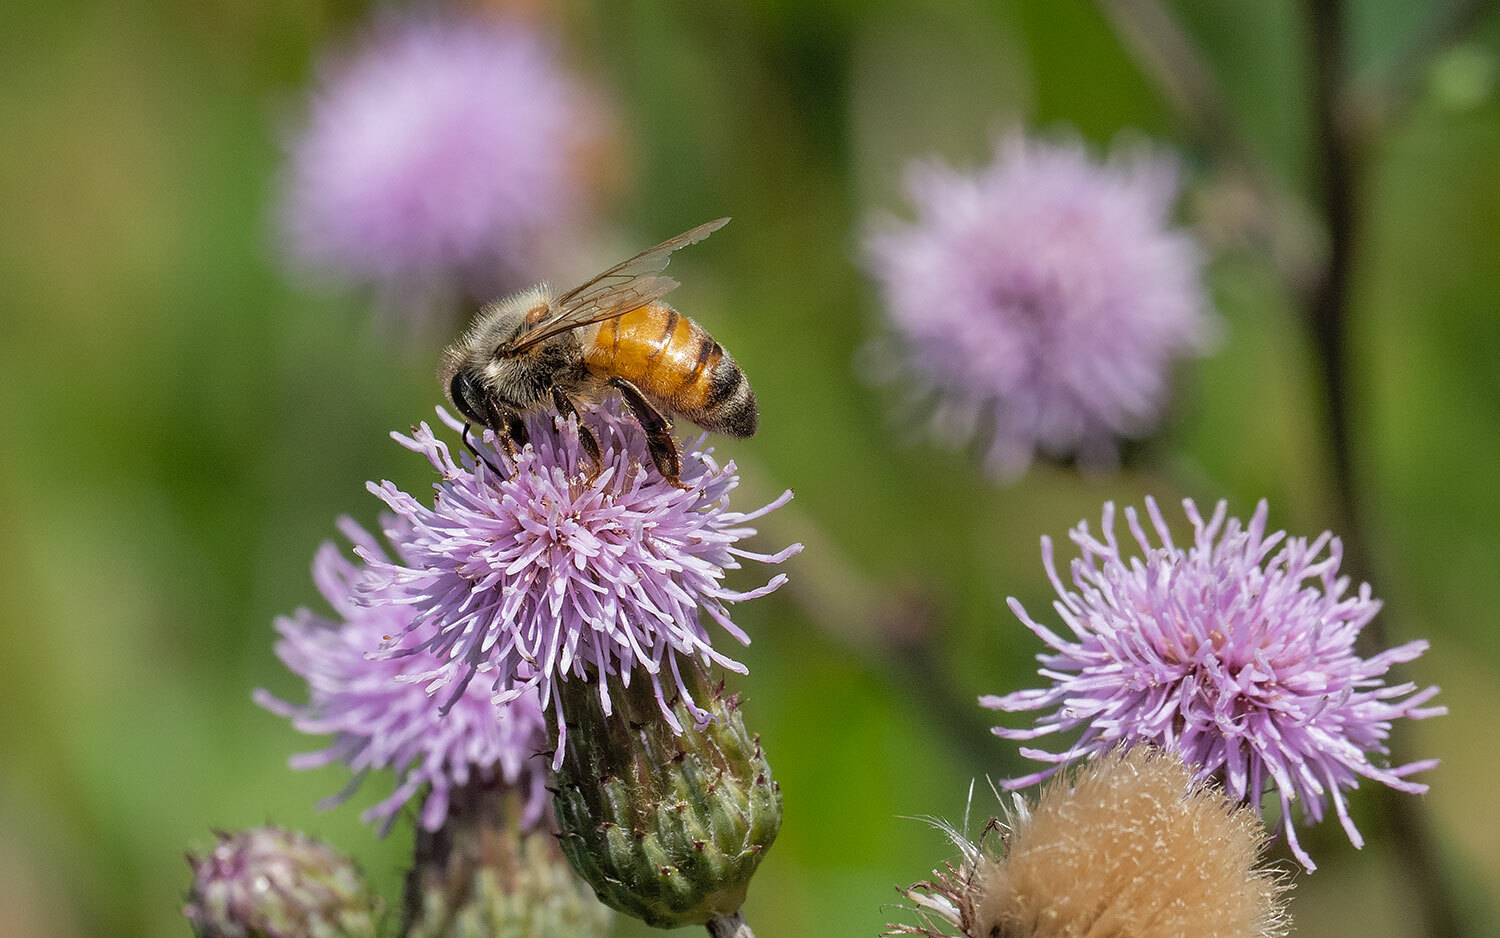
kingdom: Animalia
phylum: Arthropoda
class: Insecta
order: Hymenoptera
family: Apidae
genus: Apis
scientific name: Apis mellifera
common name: Honey bee
